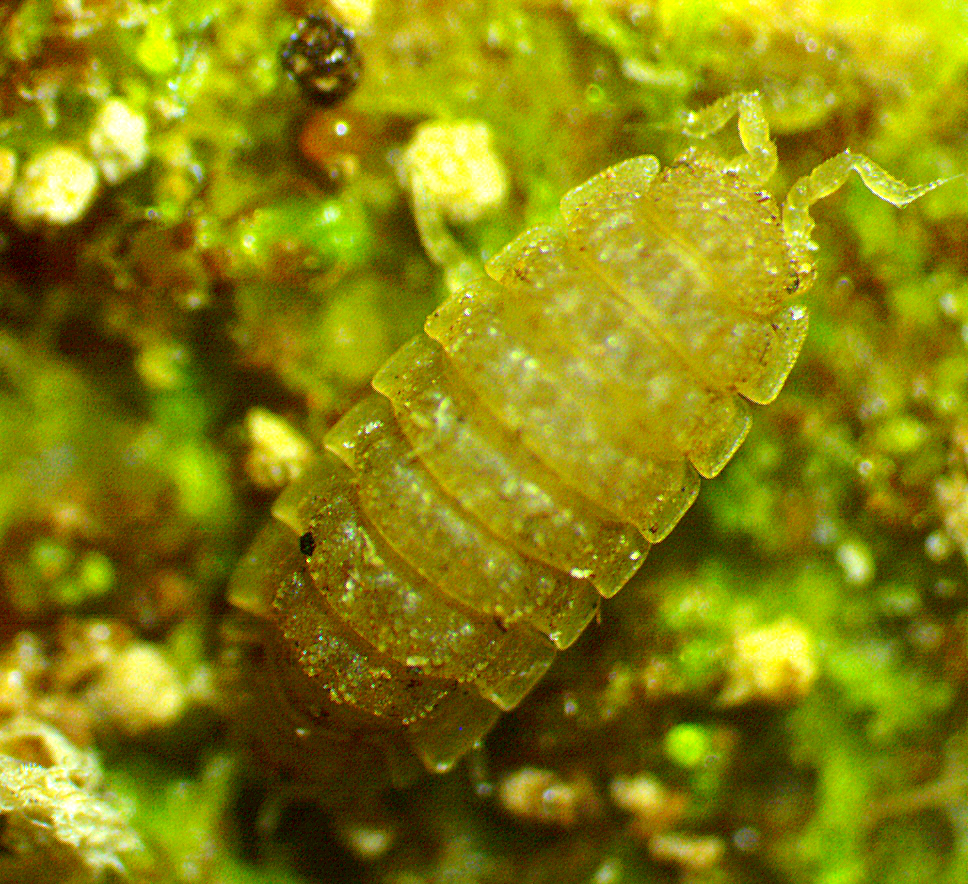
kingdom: Animalia
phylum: Arthropoda
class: Malacostraca
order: Isopoda
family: Trichoniscidae
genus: Haplophthalmus
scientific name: Haplophthalmus danicus
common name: Pillbug
